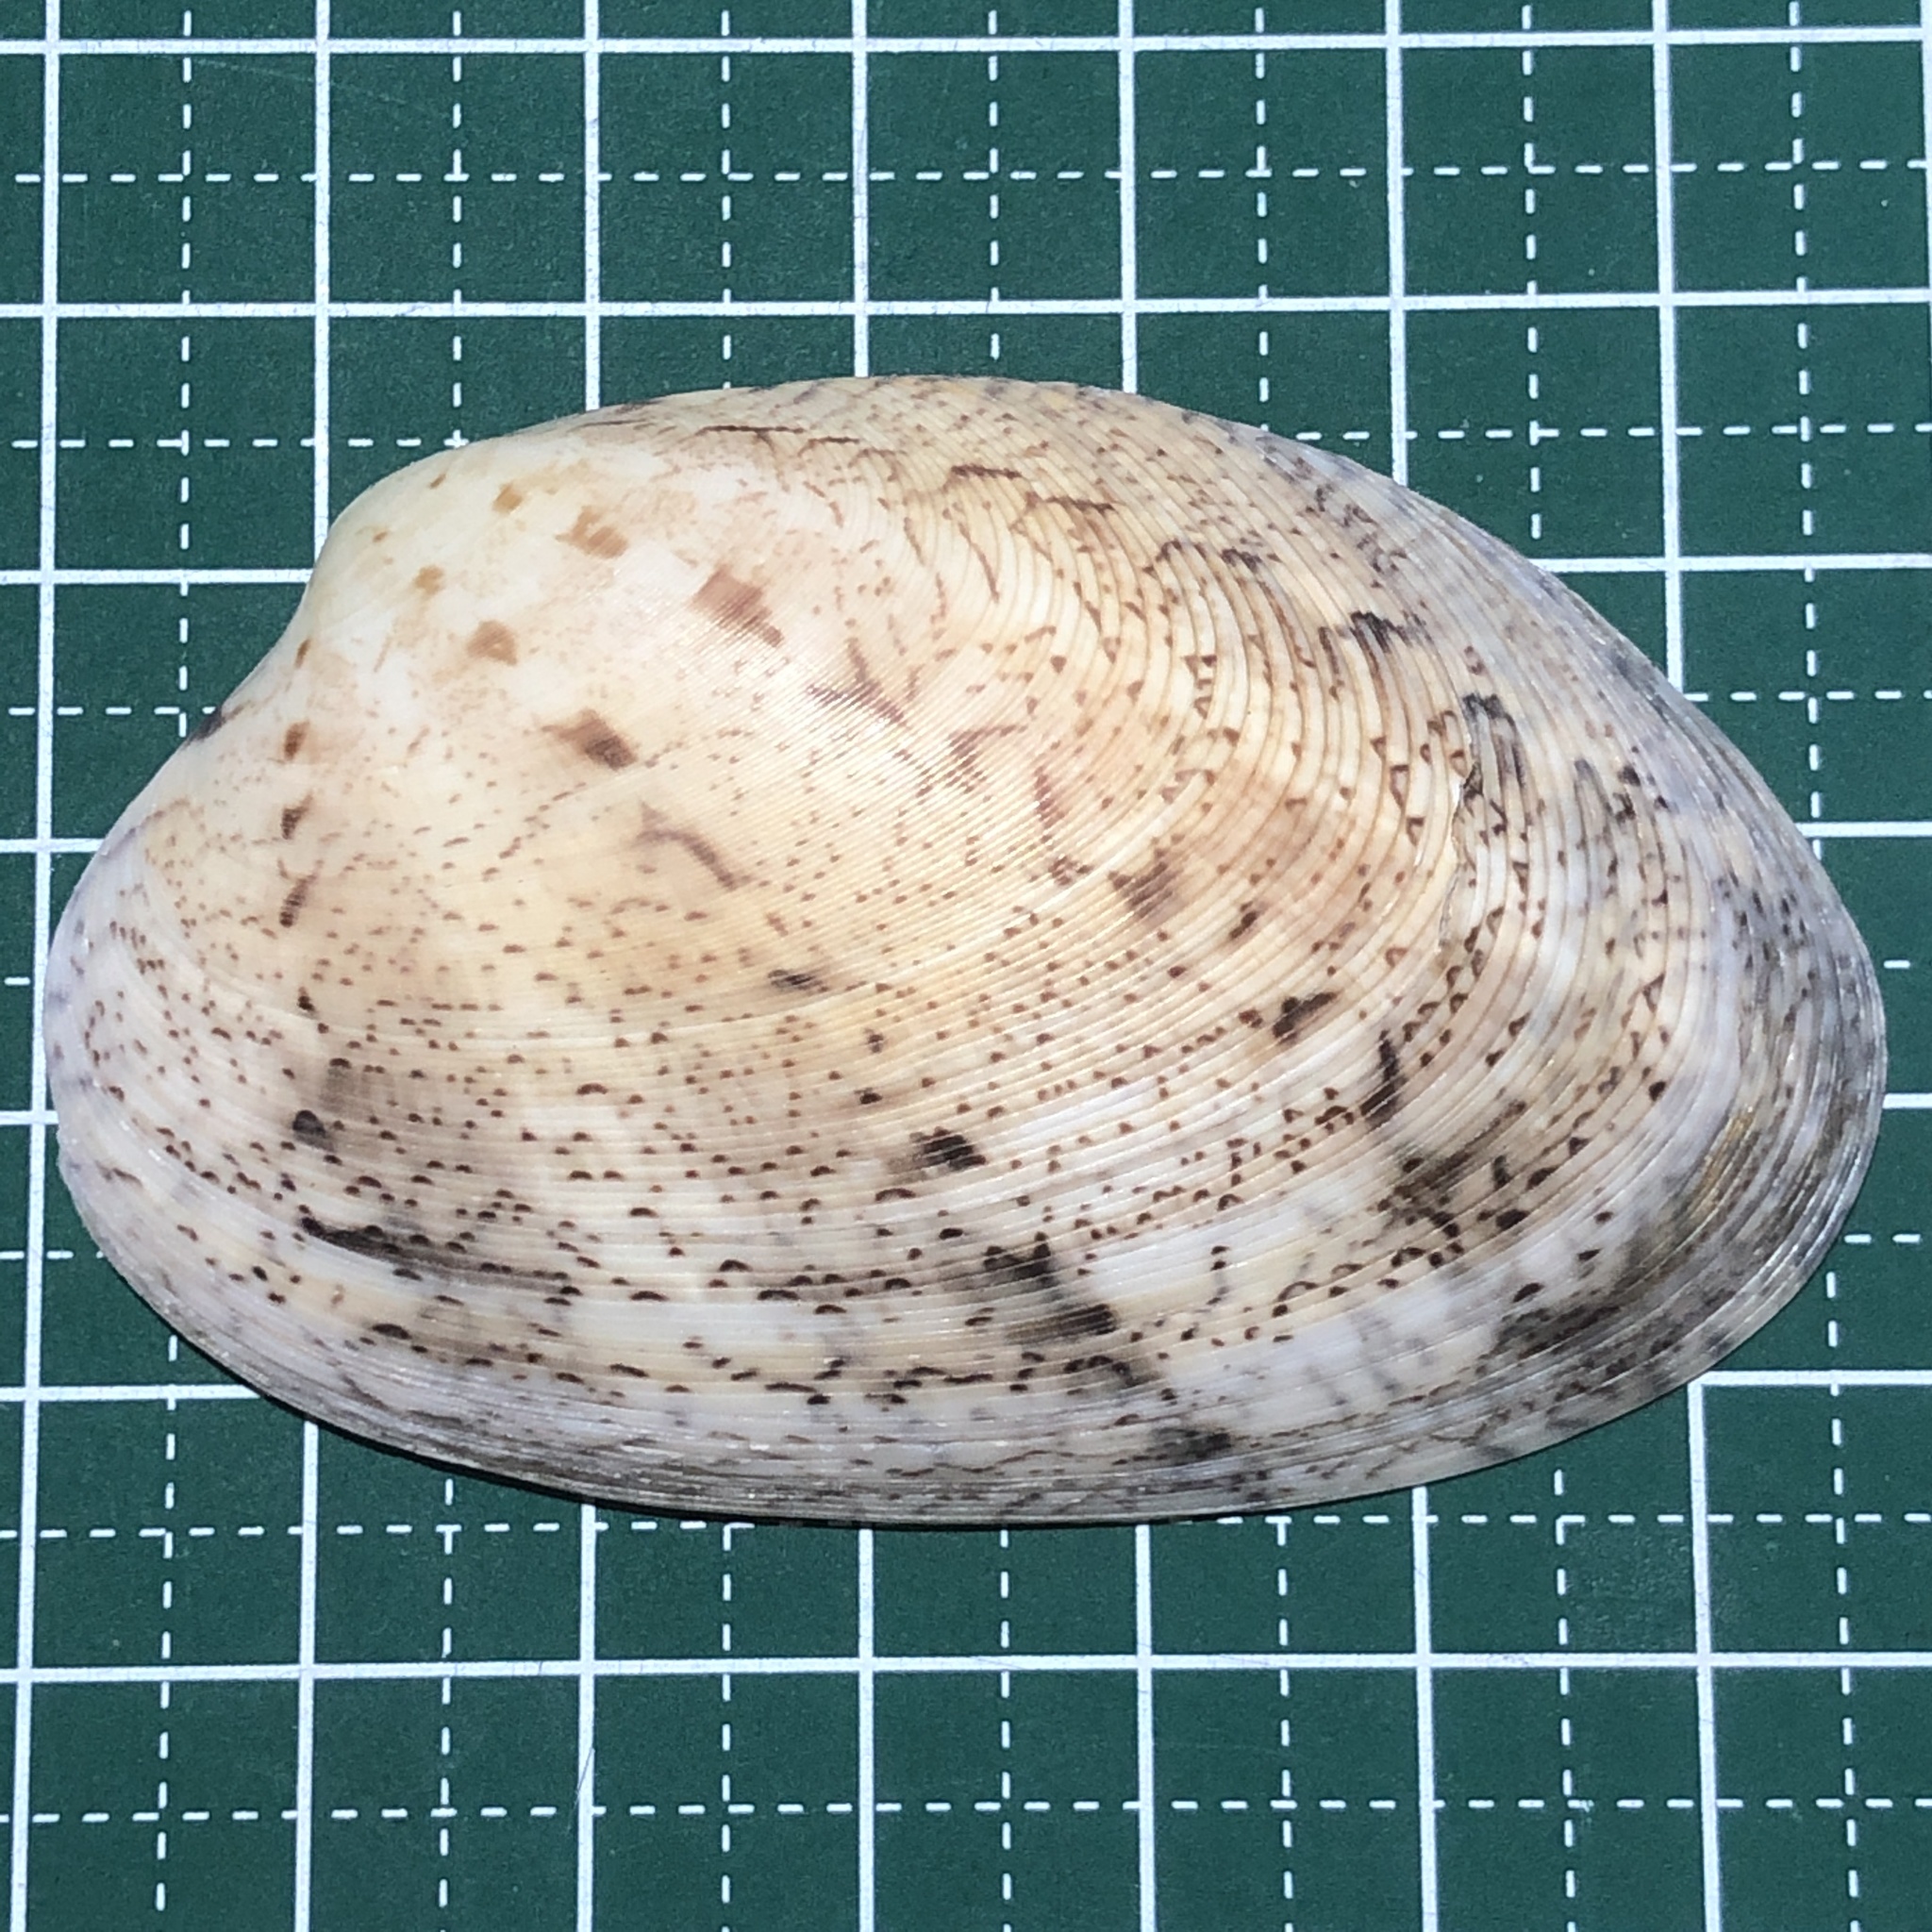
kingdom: Animalia
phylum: Mollusca
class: Bivalvia
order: Venerida
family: Veneridae
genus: Tapes
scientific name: Tapes literatus
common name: Lettered carpet shell
